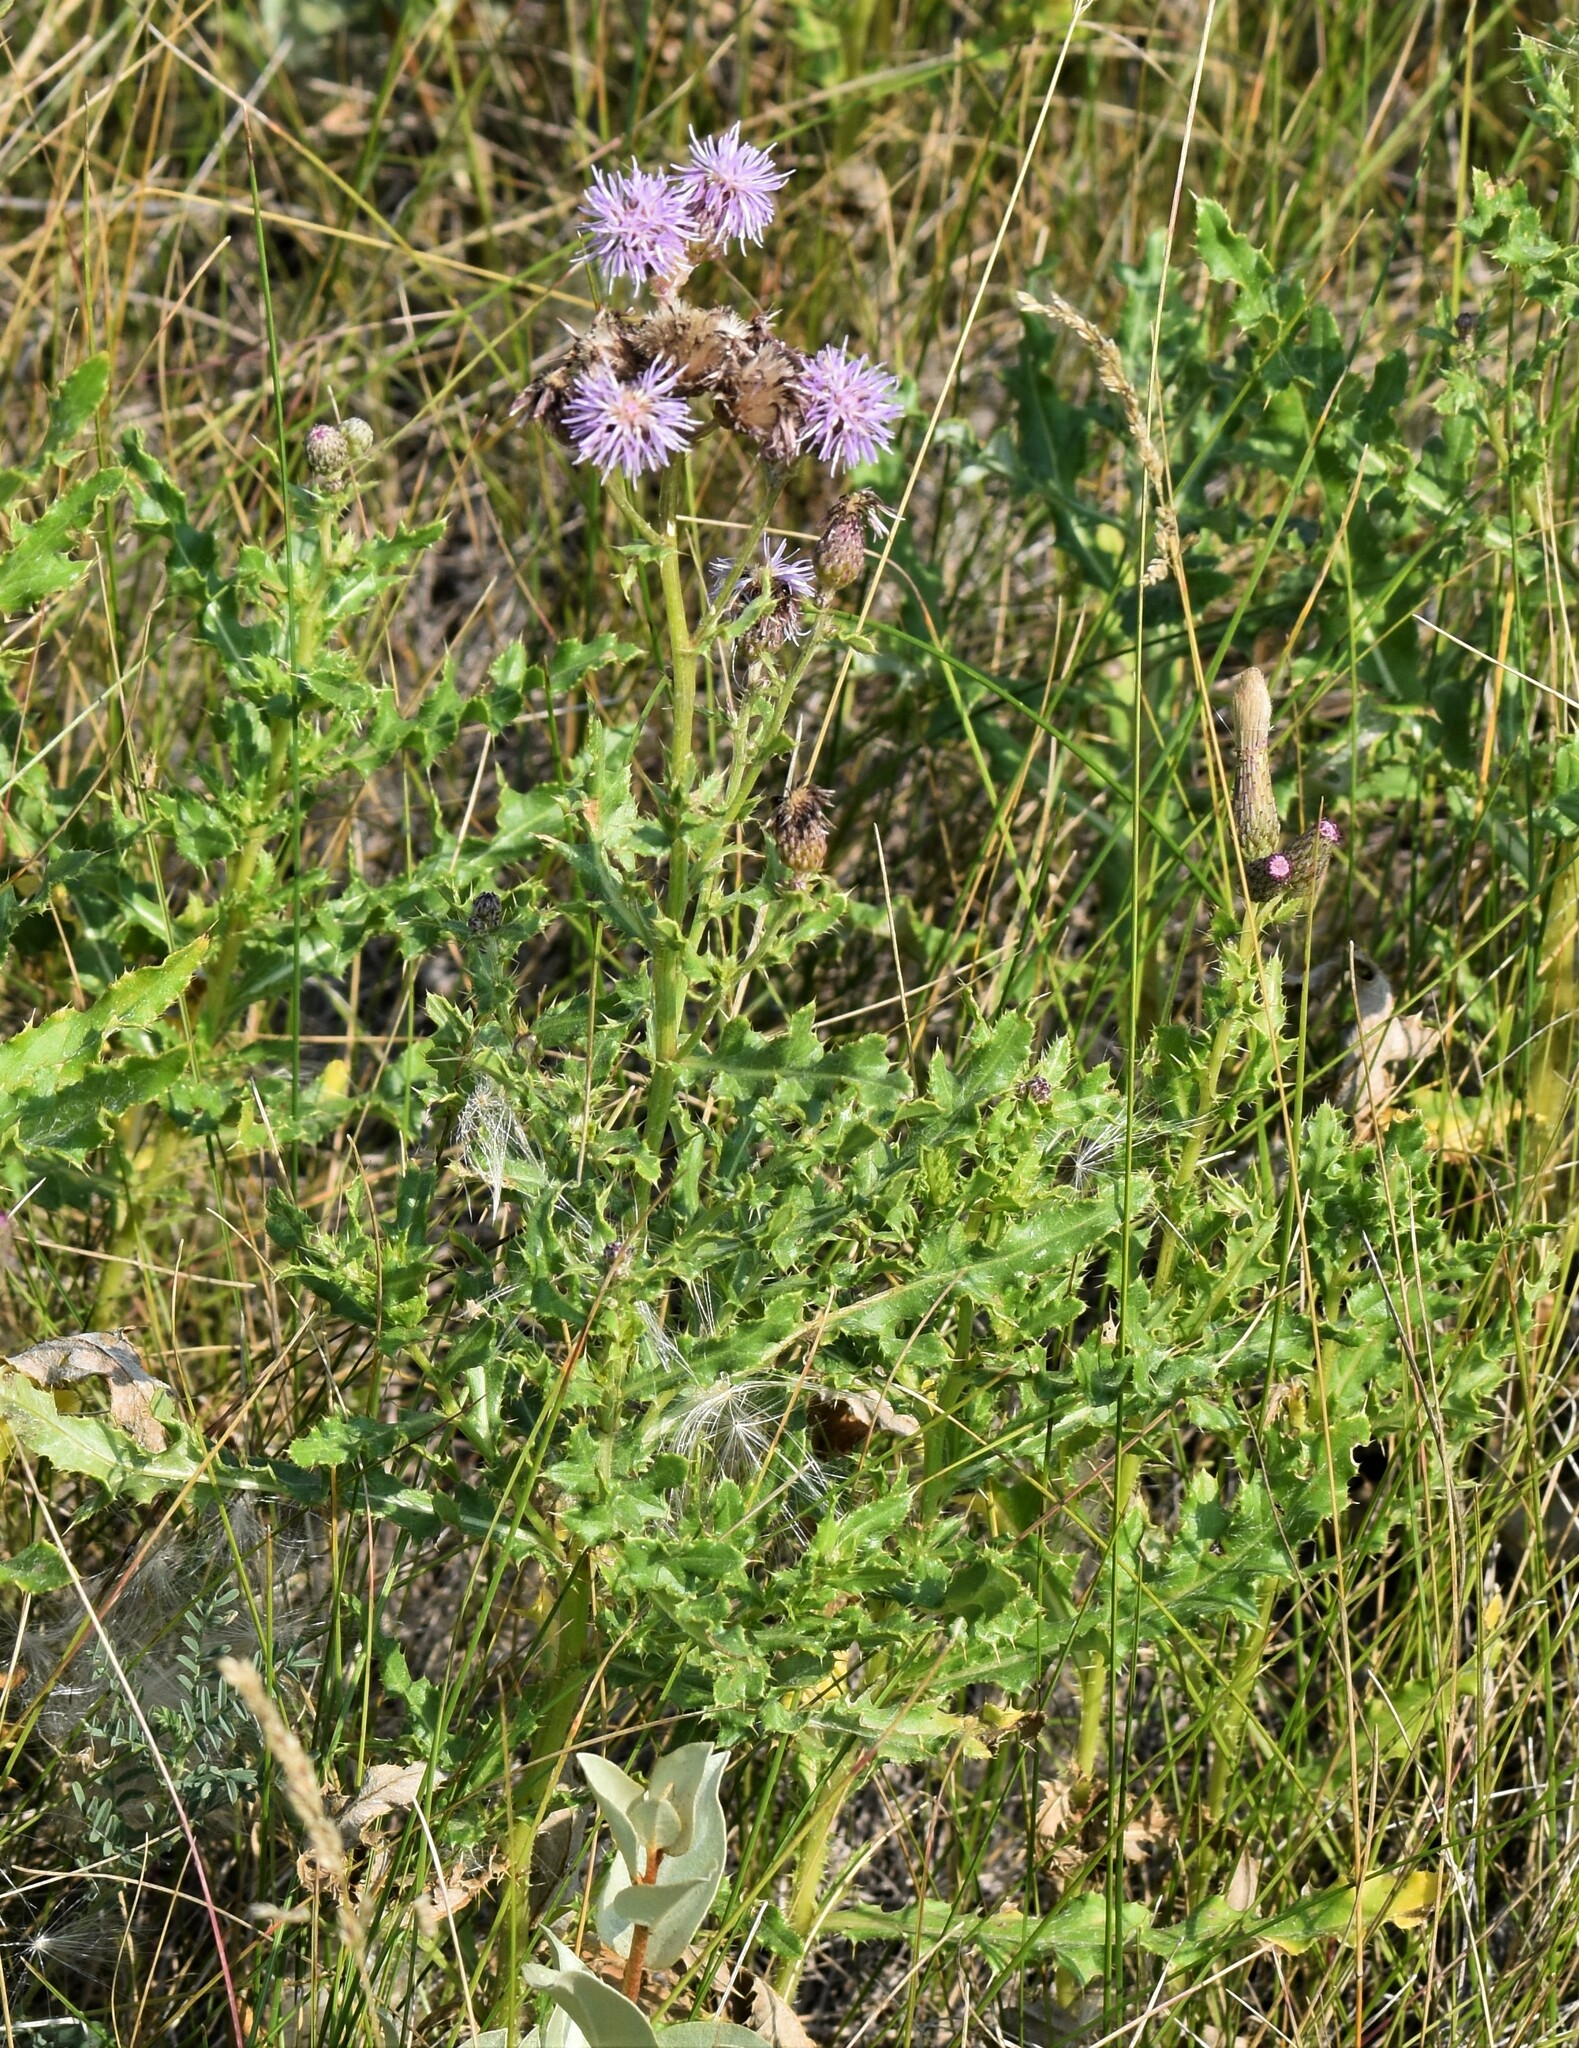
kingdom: Plantae
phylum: Tracheophyta
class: Magnoliopsida
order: Asterales
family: Asteraceae
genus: Cirsium
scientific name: Cirsium arvense
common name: Creeping thistle
